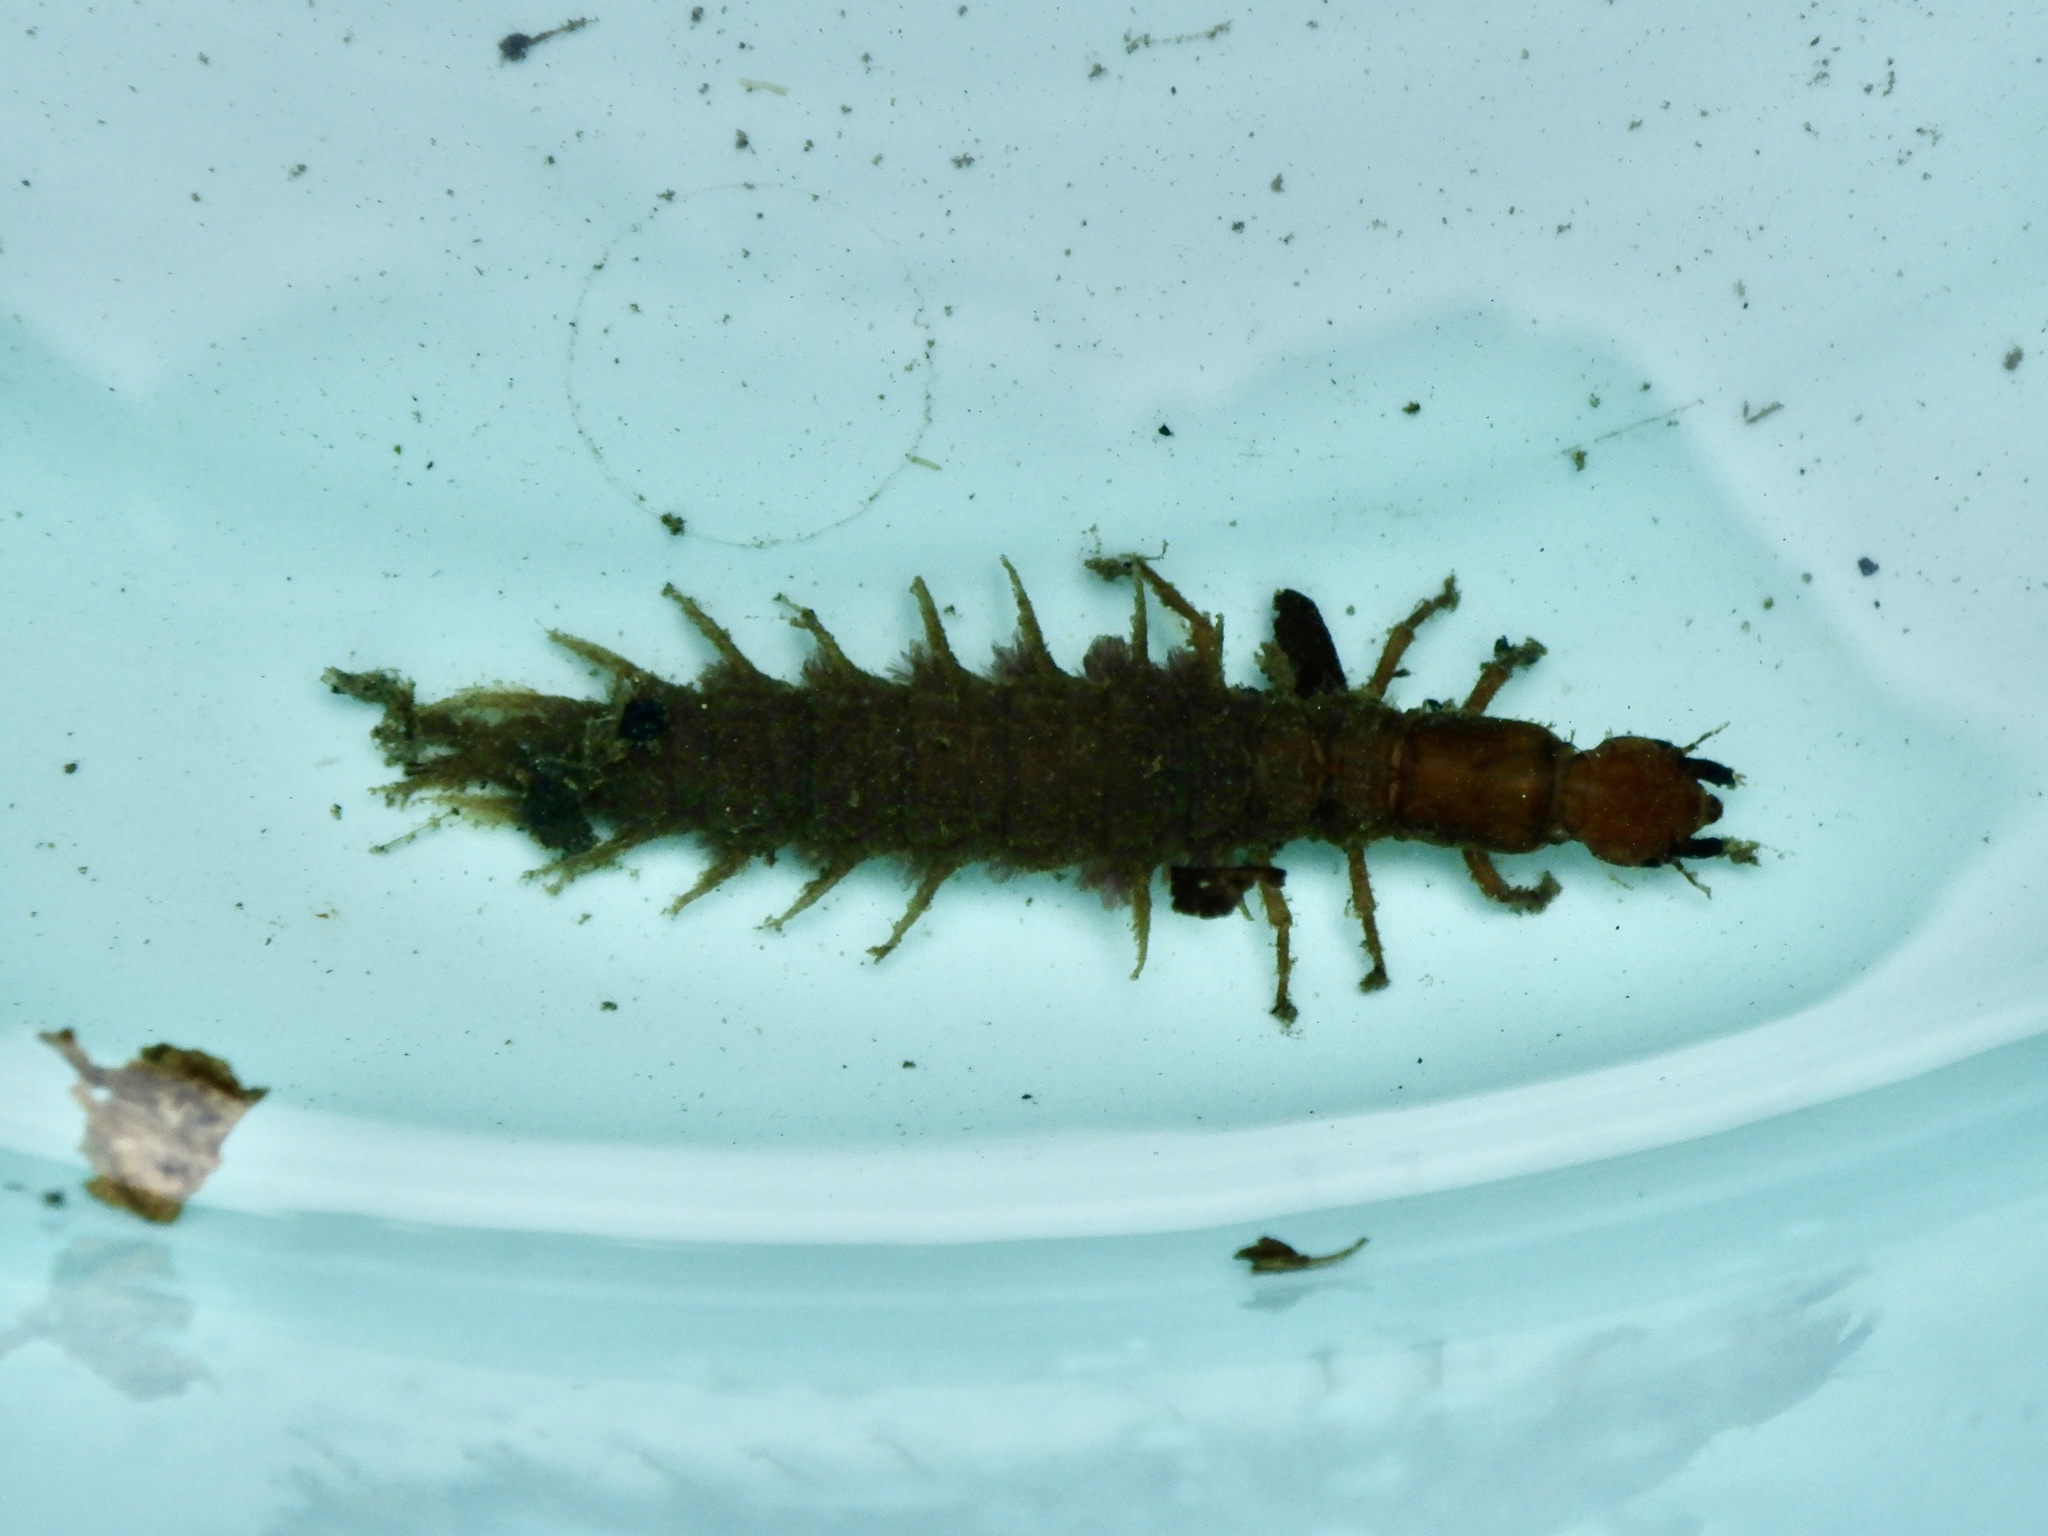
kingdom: Animalia
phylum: Arthropoda
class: Insecta
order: Megaloptera
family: Corydalidae
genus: Protohermes
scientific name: Protohermes grandis
